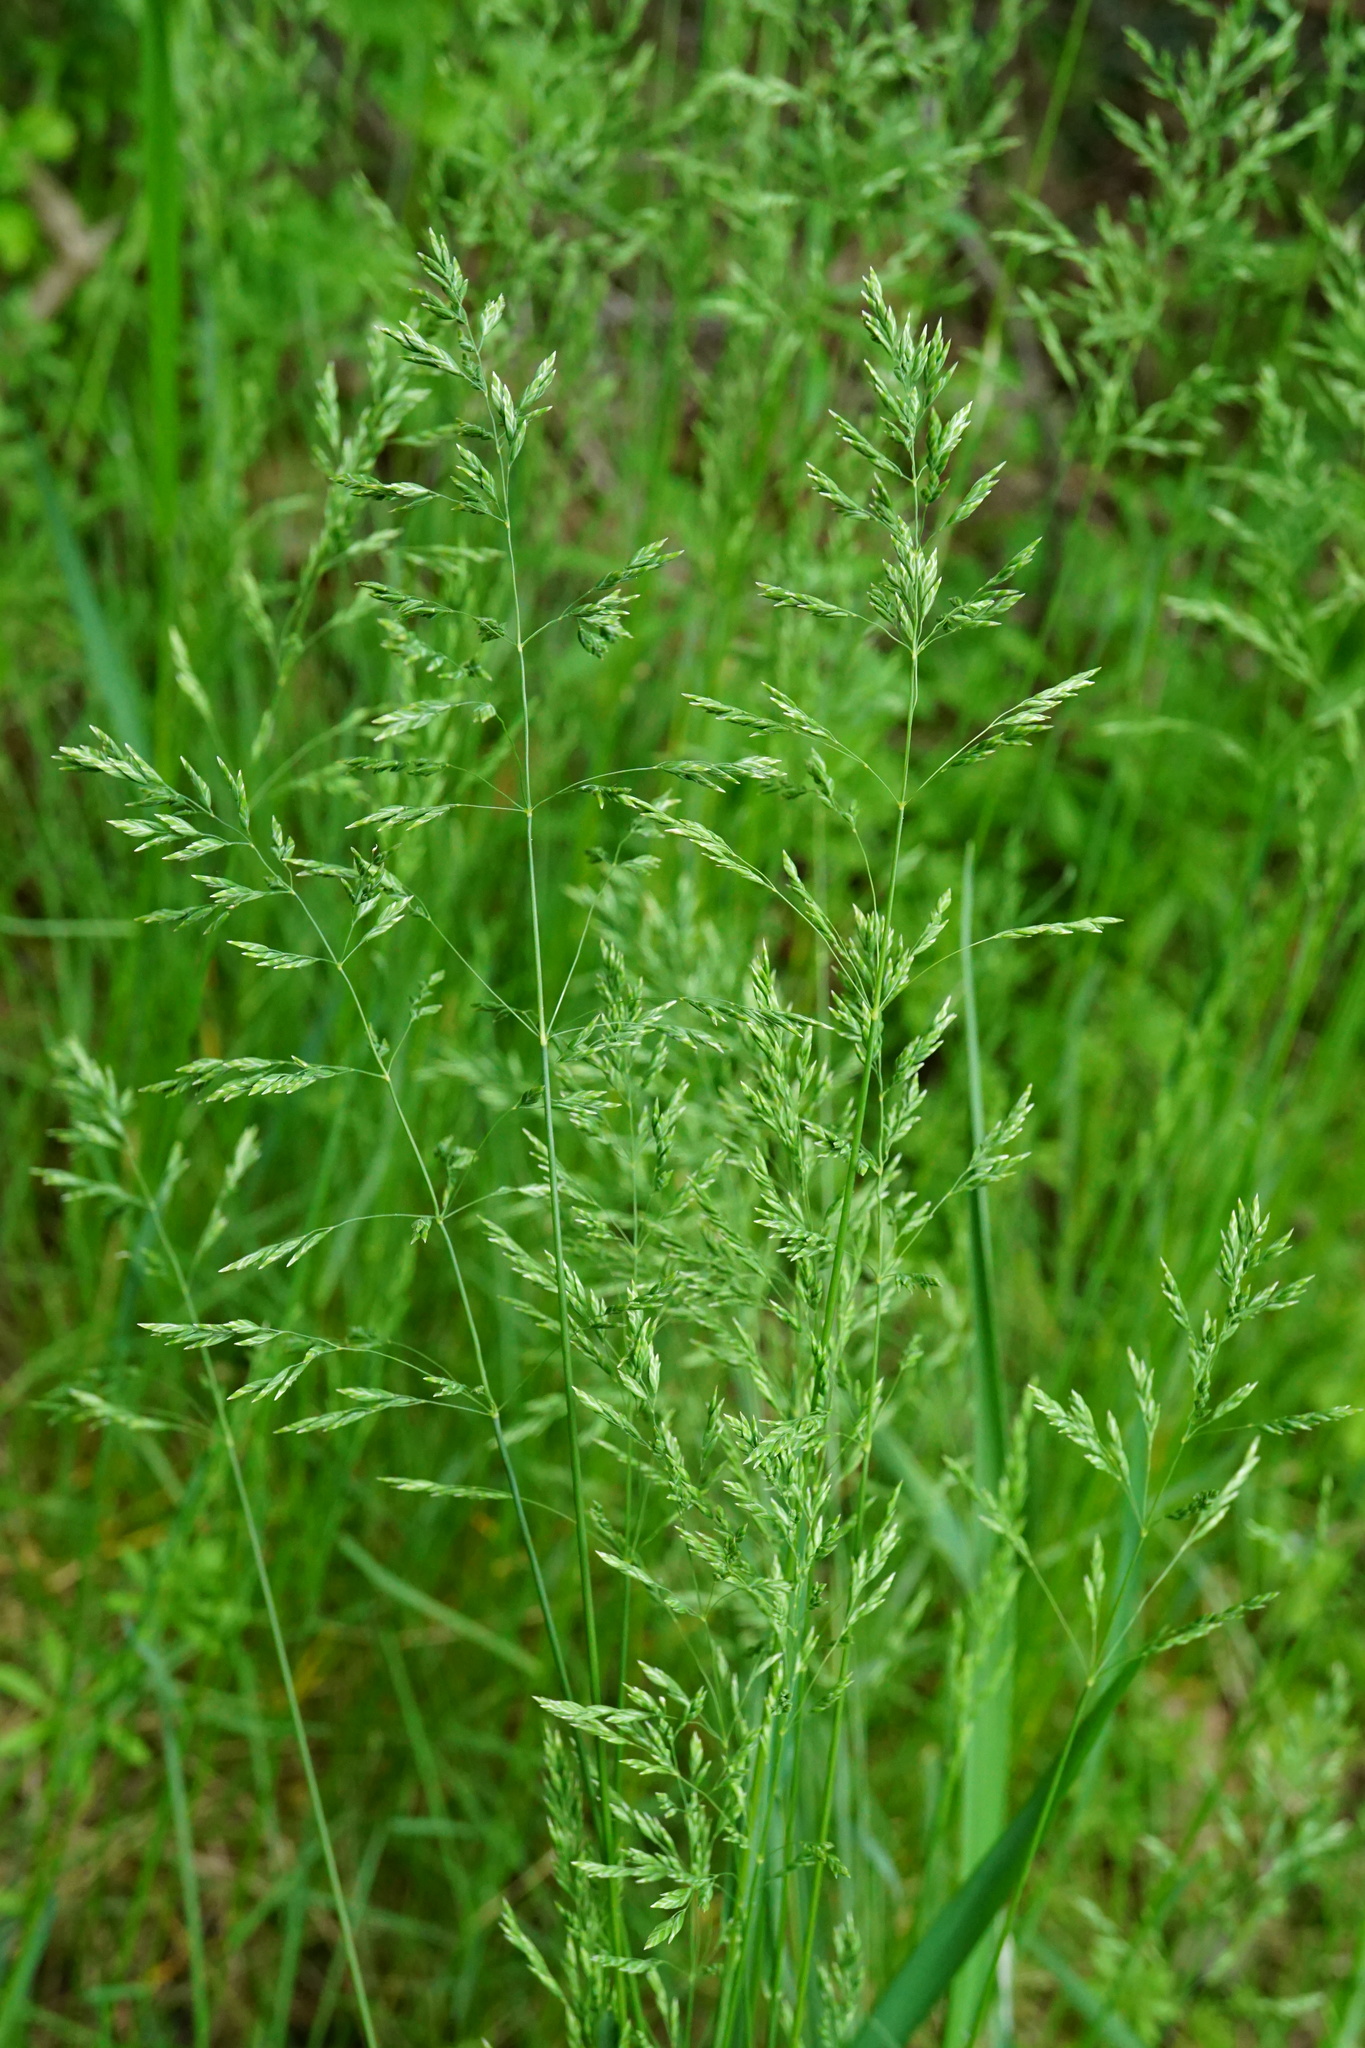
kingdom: Plantae
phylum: Tracheophyta
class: Liliopsida
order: Poales
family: Poaceae
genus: Poa
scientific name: Poa pratensis
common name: Kentucky bluegrass
